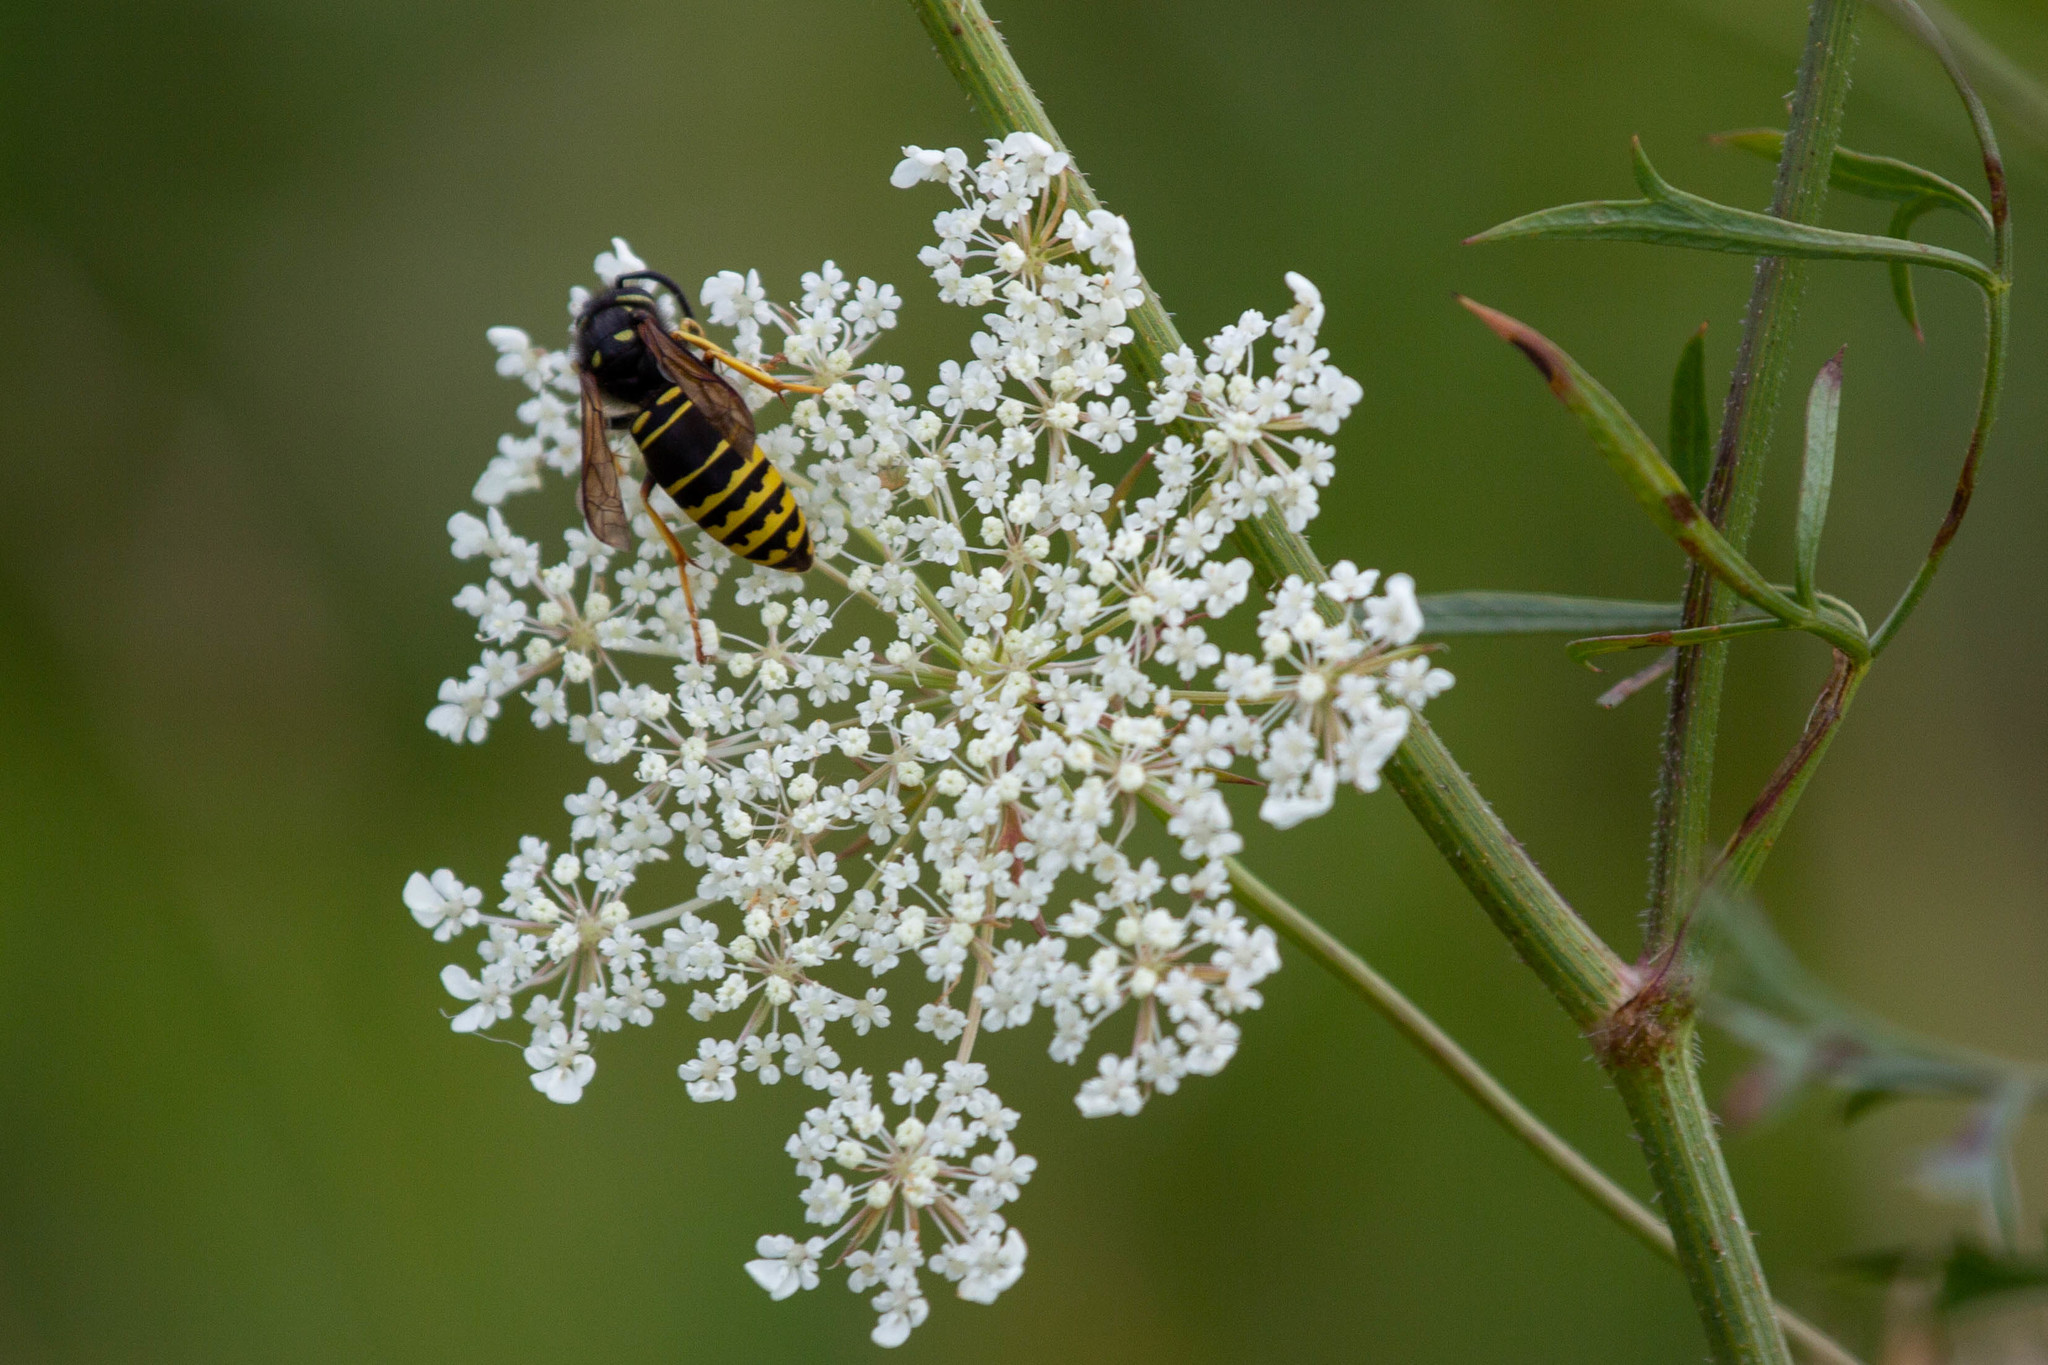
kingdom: Animalia
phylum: Arthropoda
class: Insecta
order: Hymenoptera
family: Vespidae
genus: Vespula
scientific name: Vespula vidua
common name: Widow yellowjacket
